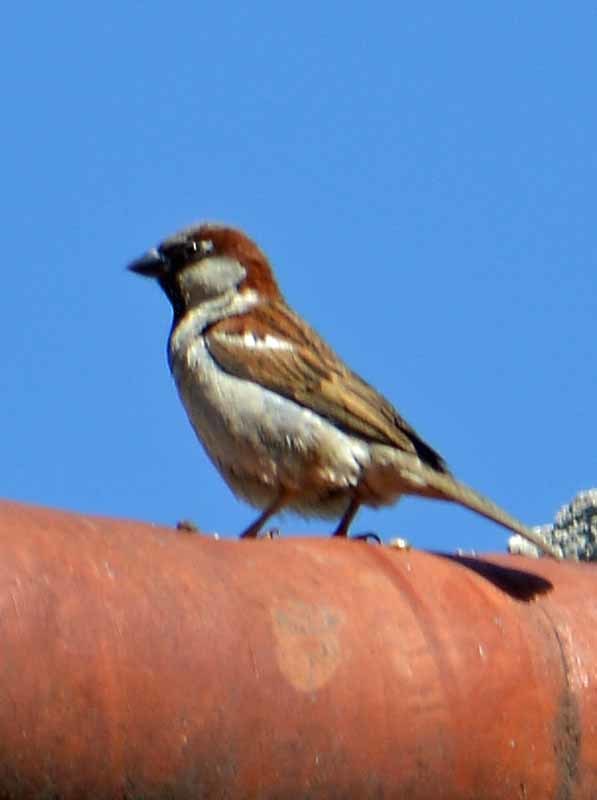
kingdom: Animalia
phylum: Chordata
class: Aves
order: Passeriformes
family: Passeridae
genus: Passer
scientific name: Passer domesticus
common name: House sparrow
